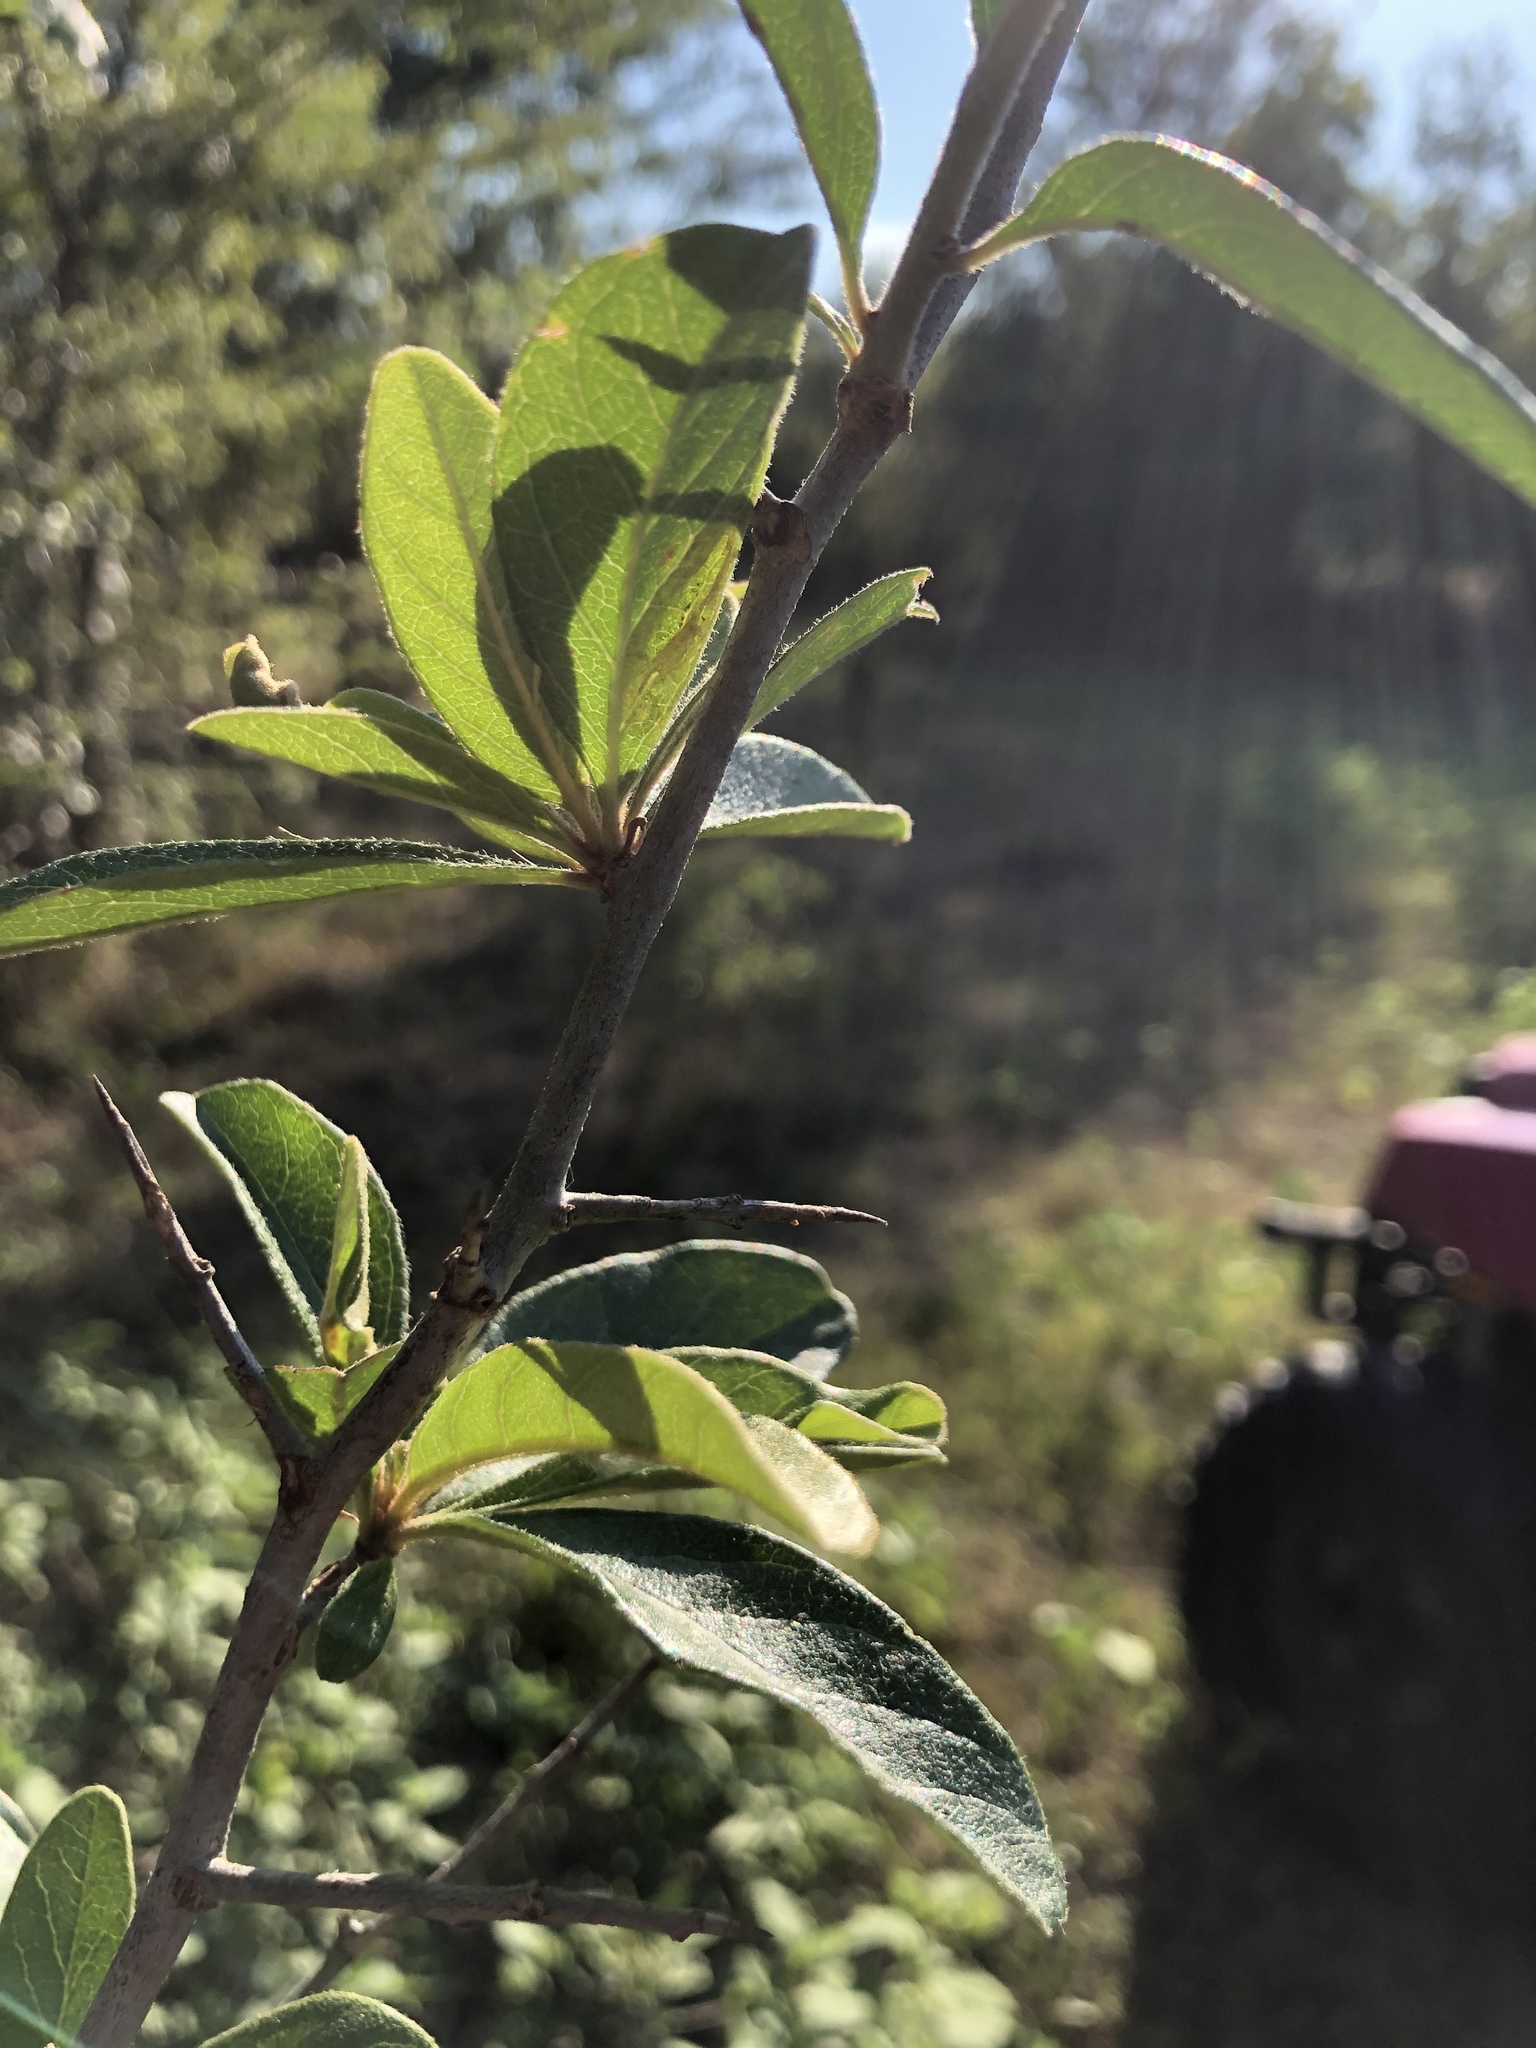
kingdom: Plantae
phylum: Tracheophyta
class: Magnoliopsida
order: Ericales
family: Sapotaceae
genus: Sideroxylon
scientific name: Sideroxylon lanuginosum
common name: Chittamwood
